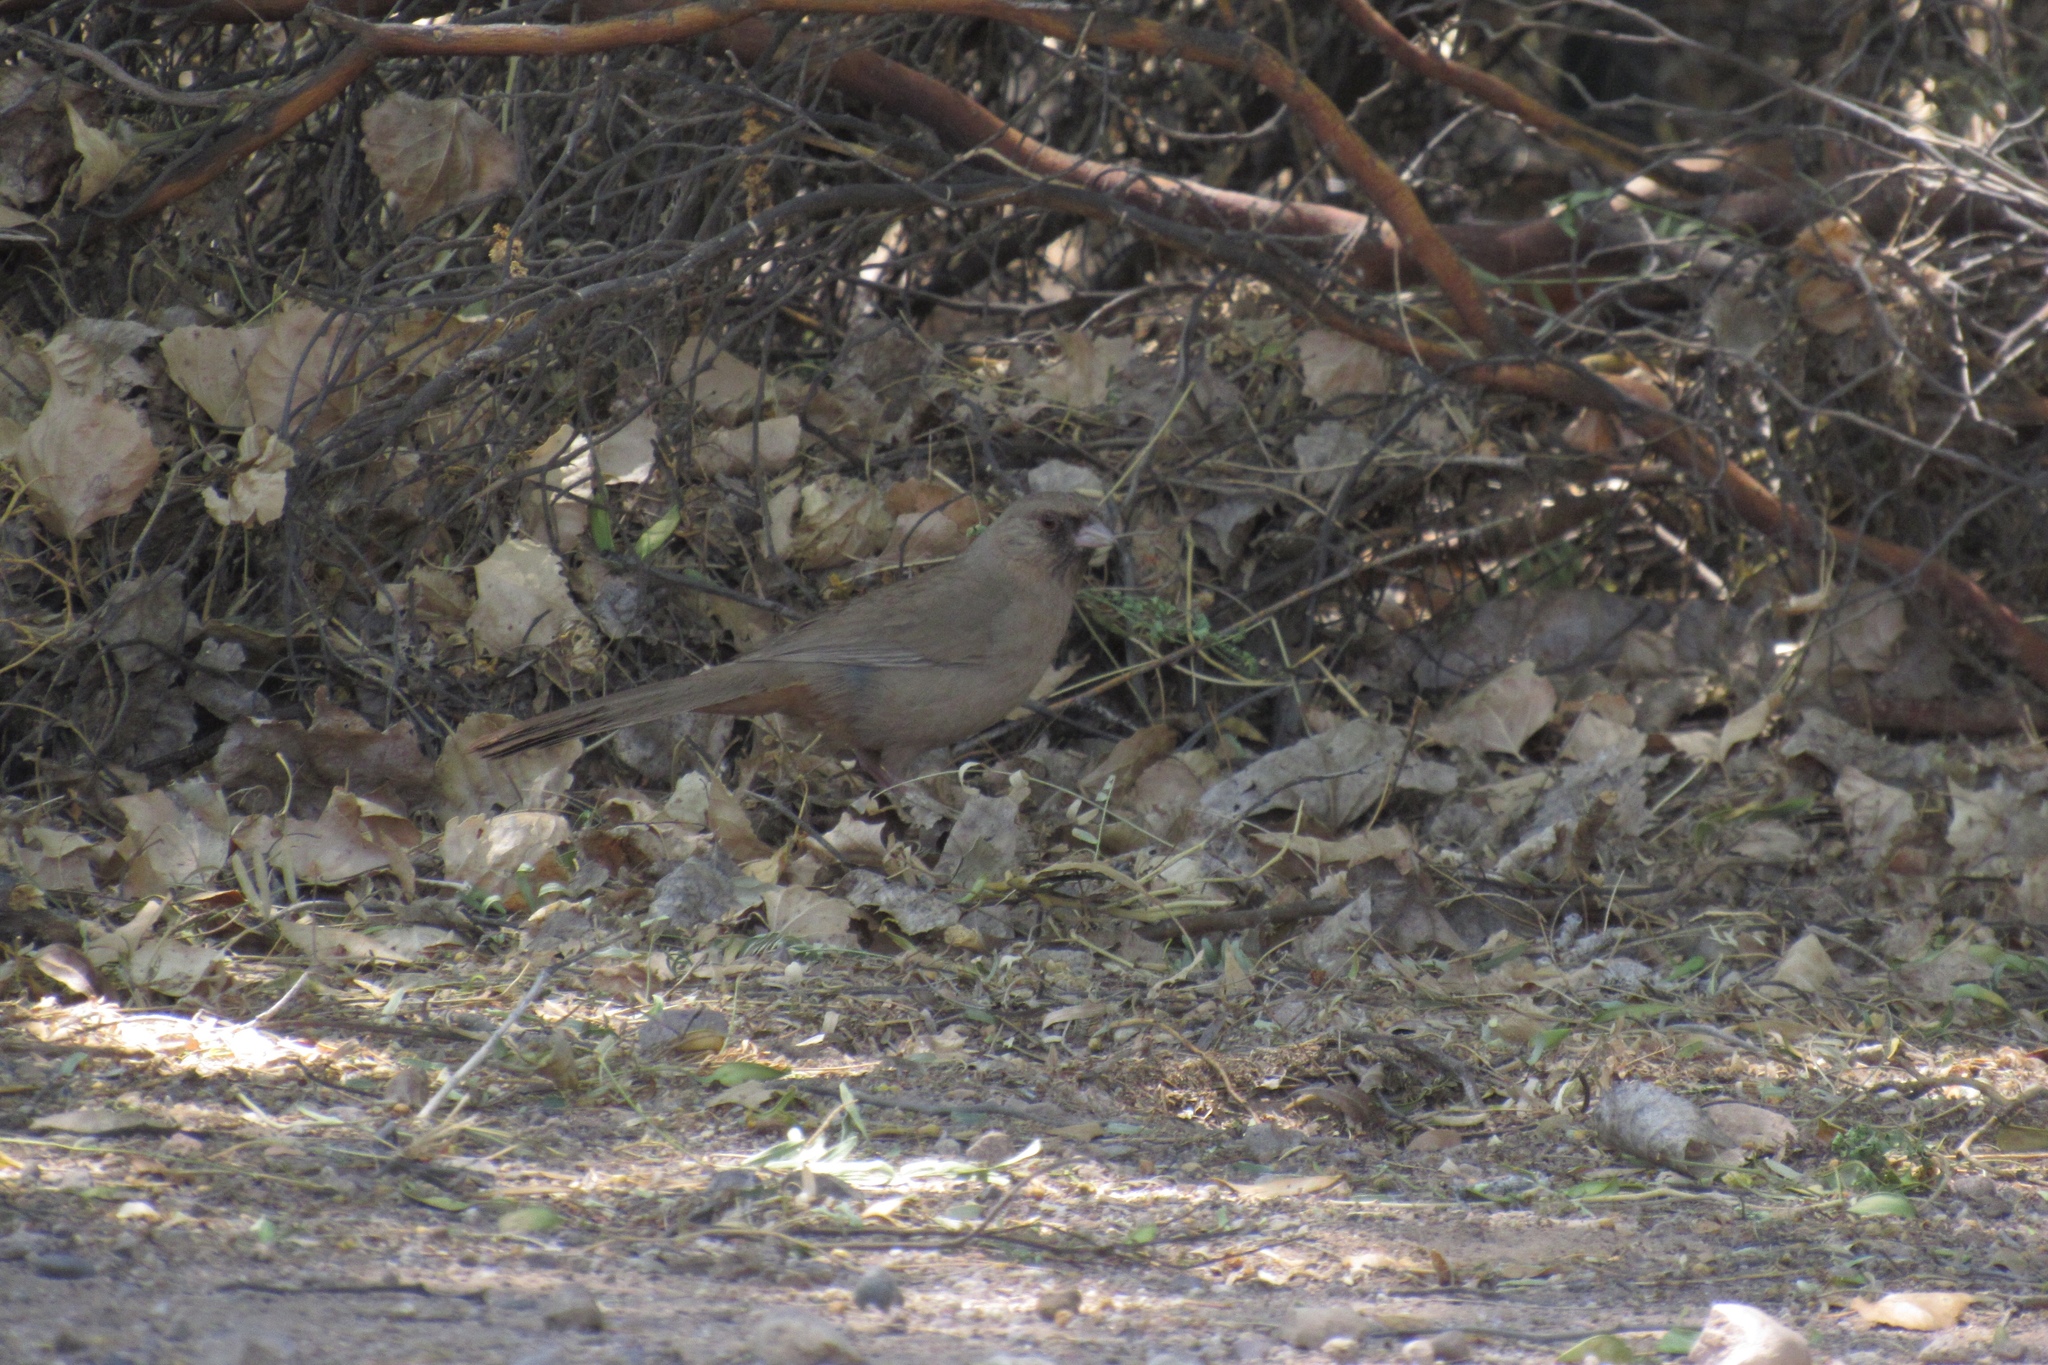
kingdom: Animalia
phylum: Chordata
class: Aves
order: Passeriformes
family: Passerellidae
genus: Melozone
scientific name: Melozone aberti
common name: Abert's towhee
